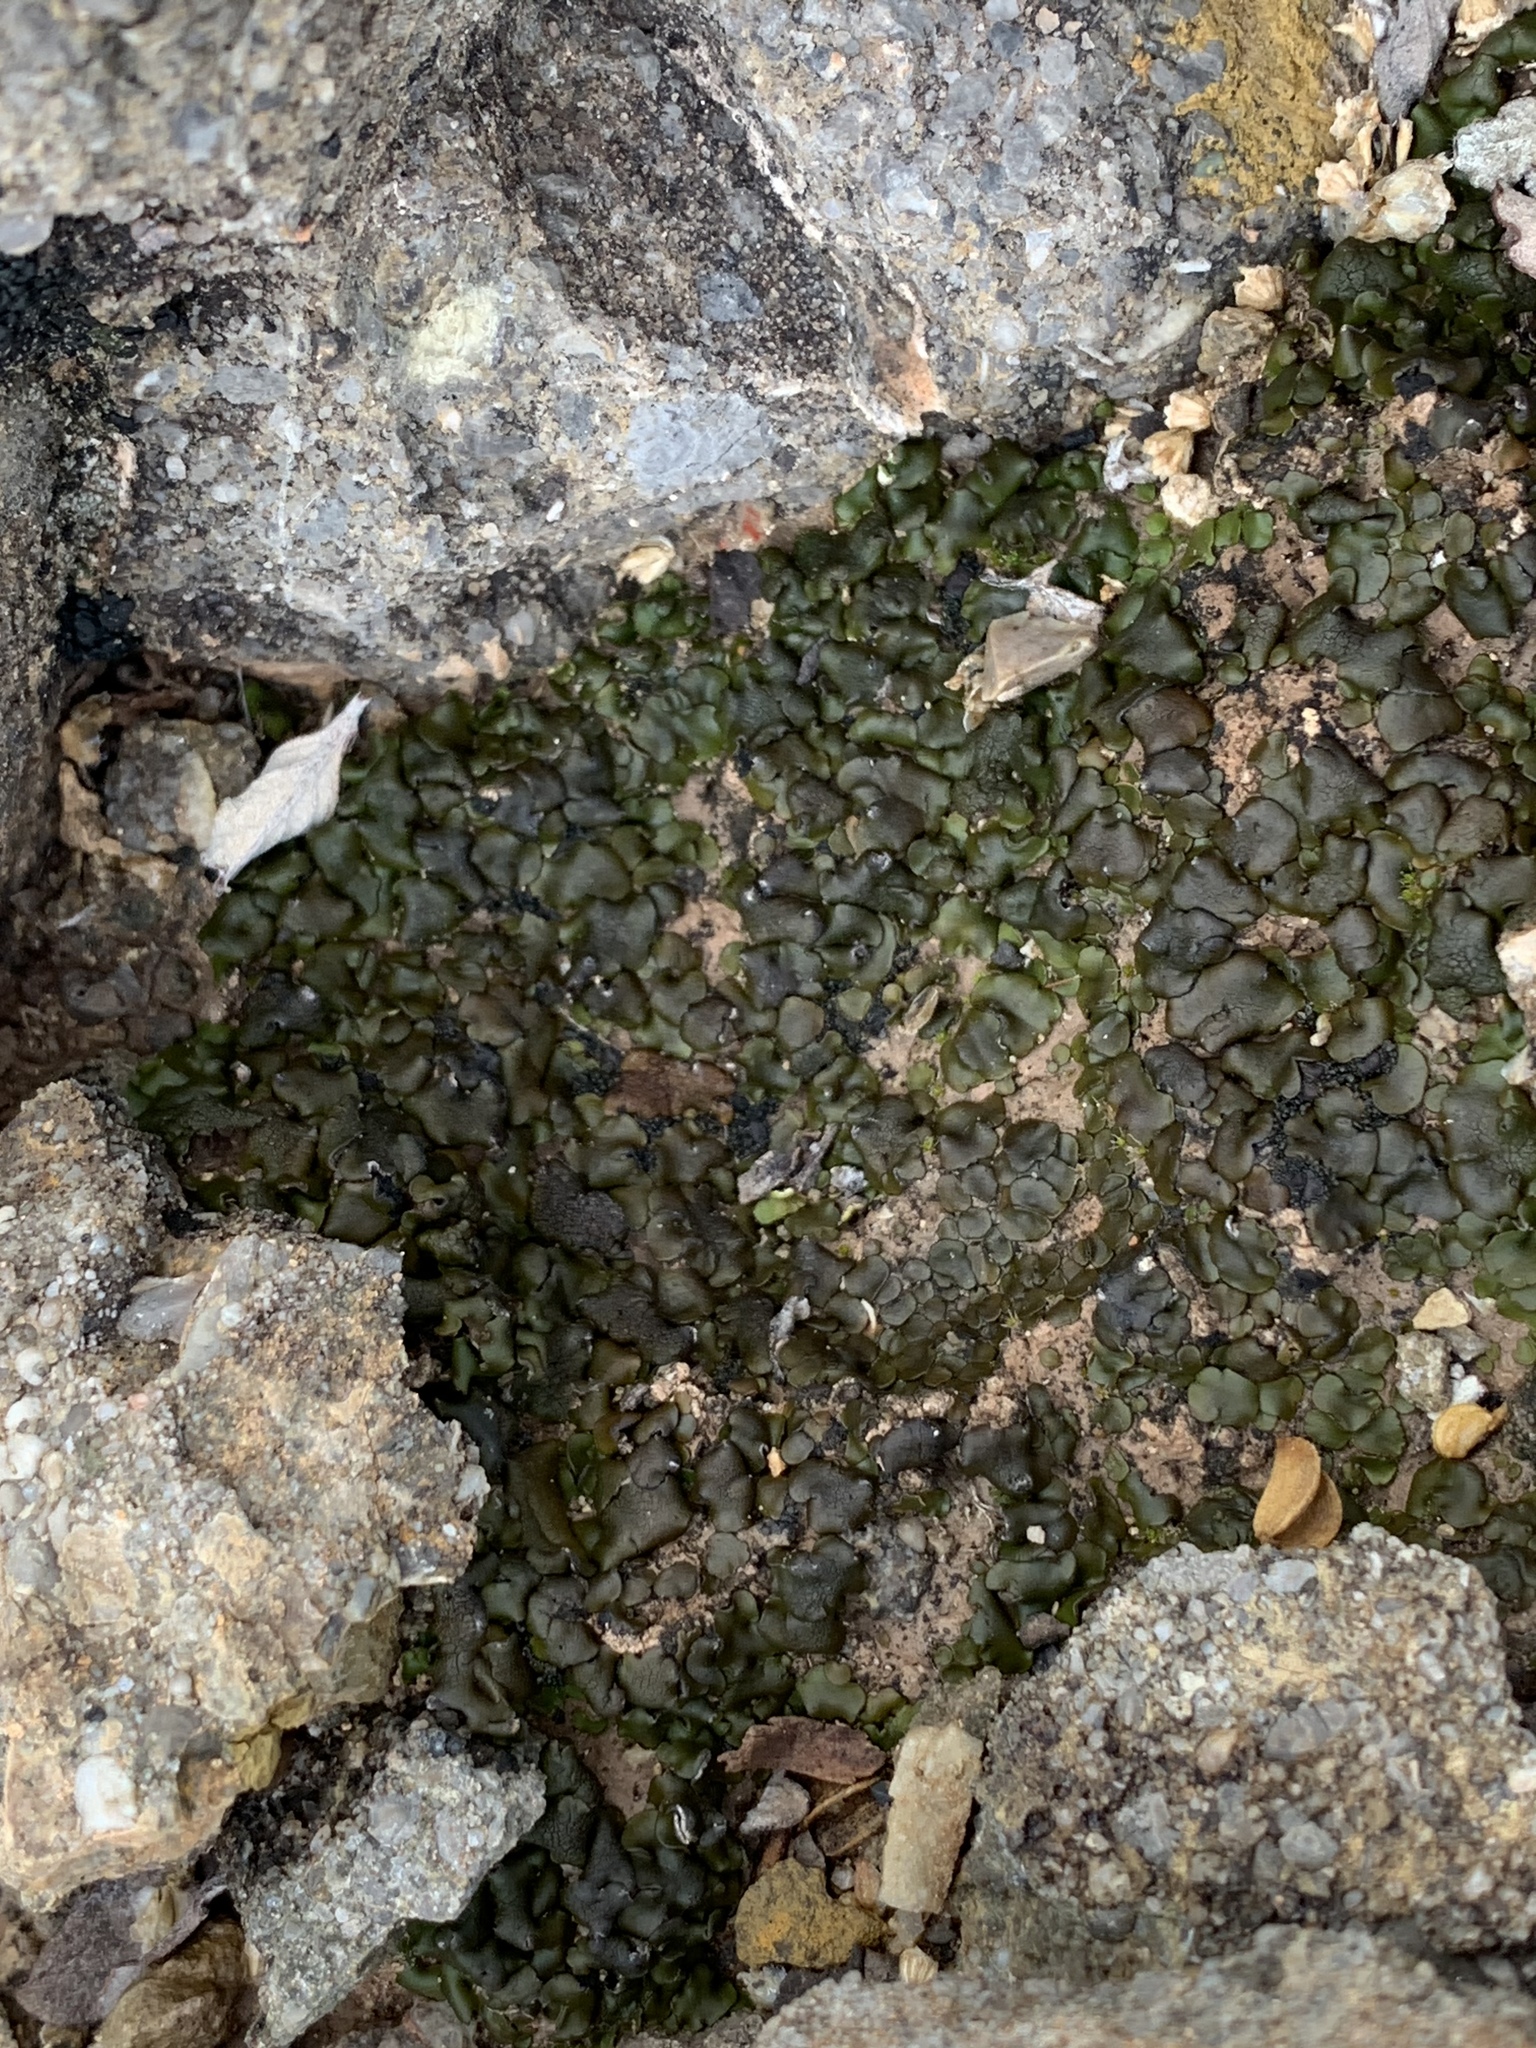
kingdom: Fungi
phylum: Ascomycota
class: Eurotiomycetes
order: Verrucariales
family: Verrucariaceae
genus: Clavascidium
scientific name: Clavascidium lacinulatum
